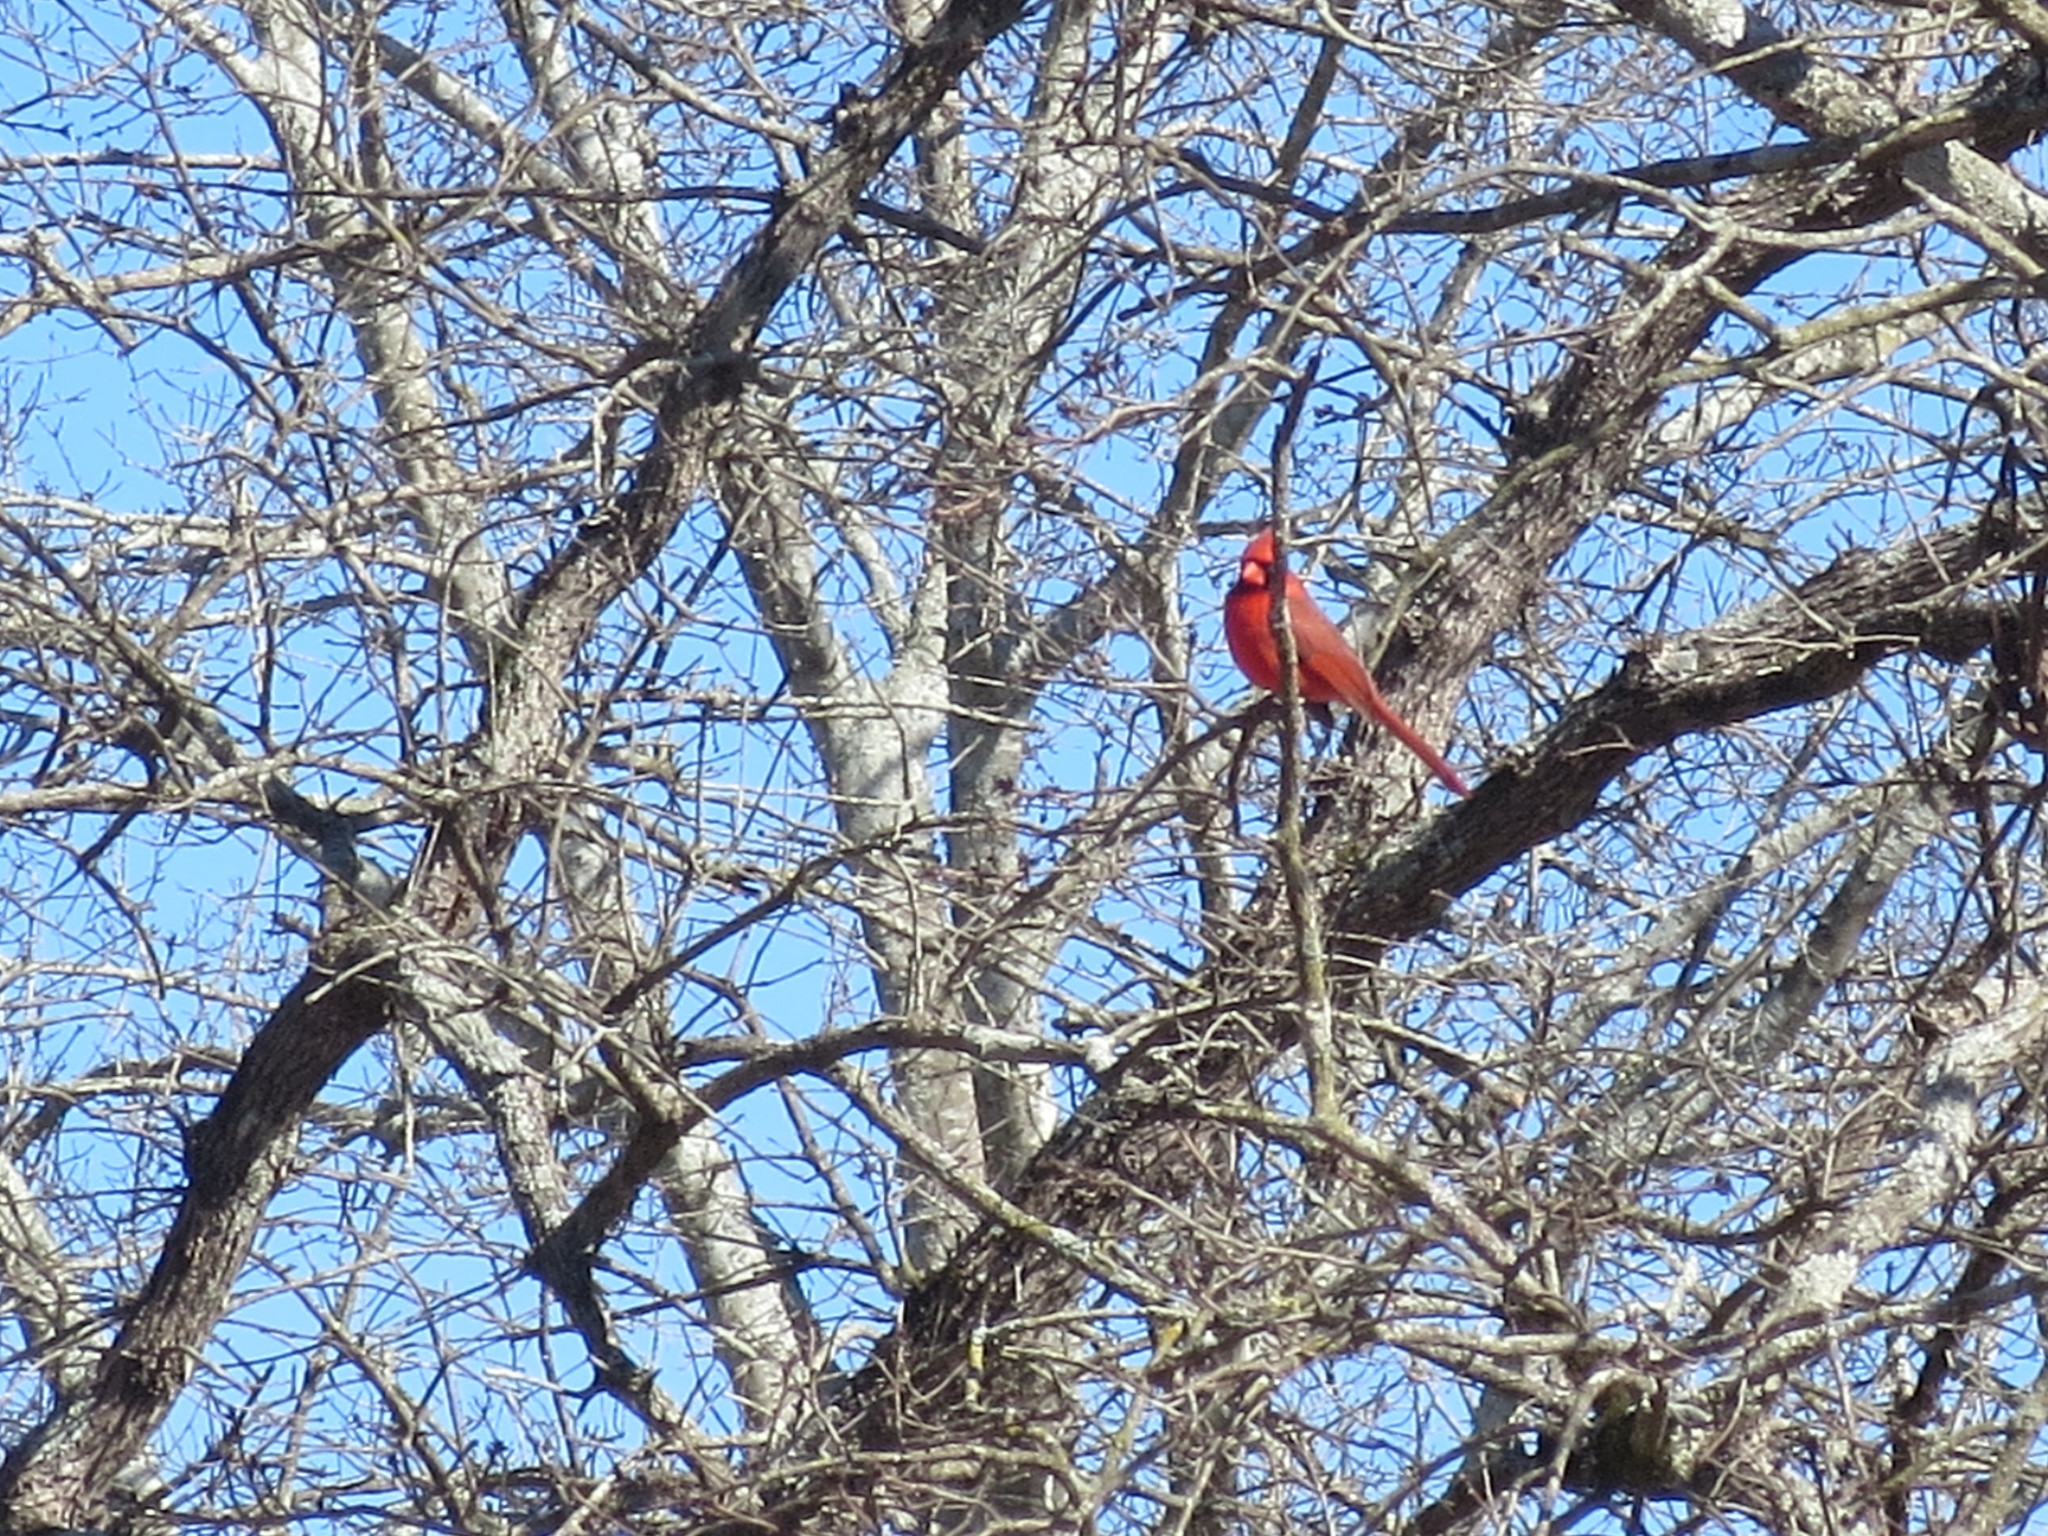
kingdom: Animalia
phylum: Chordata
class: Aves
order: Passeriformes
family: Cardinalidae
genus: Cardinalis
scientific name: Cardinalis cardinalis
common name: Northern cardinal
